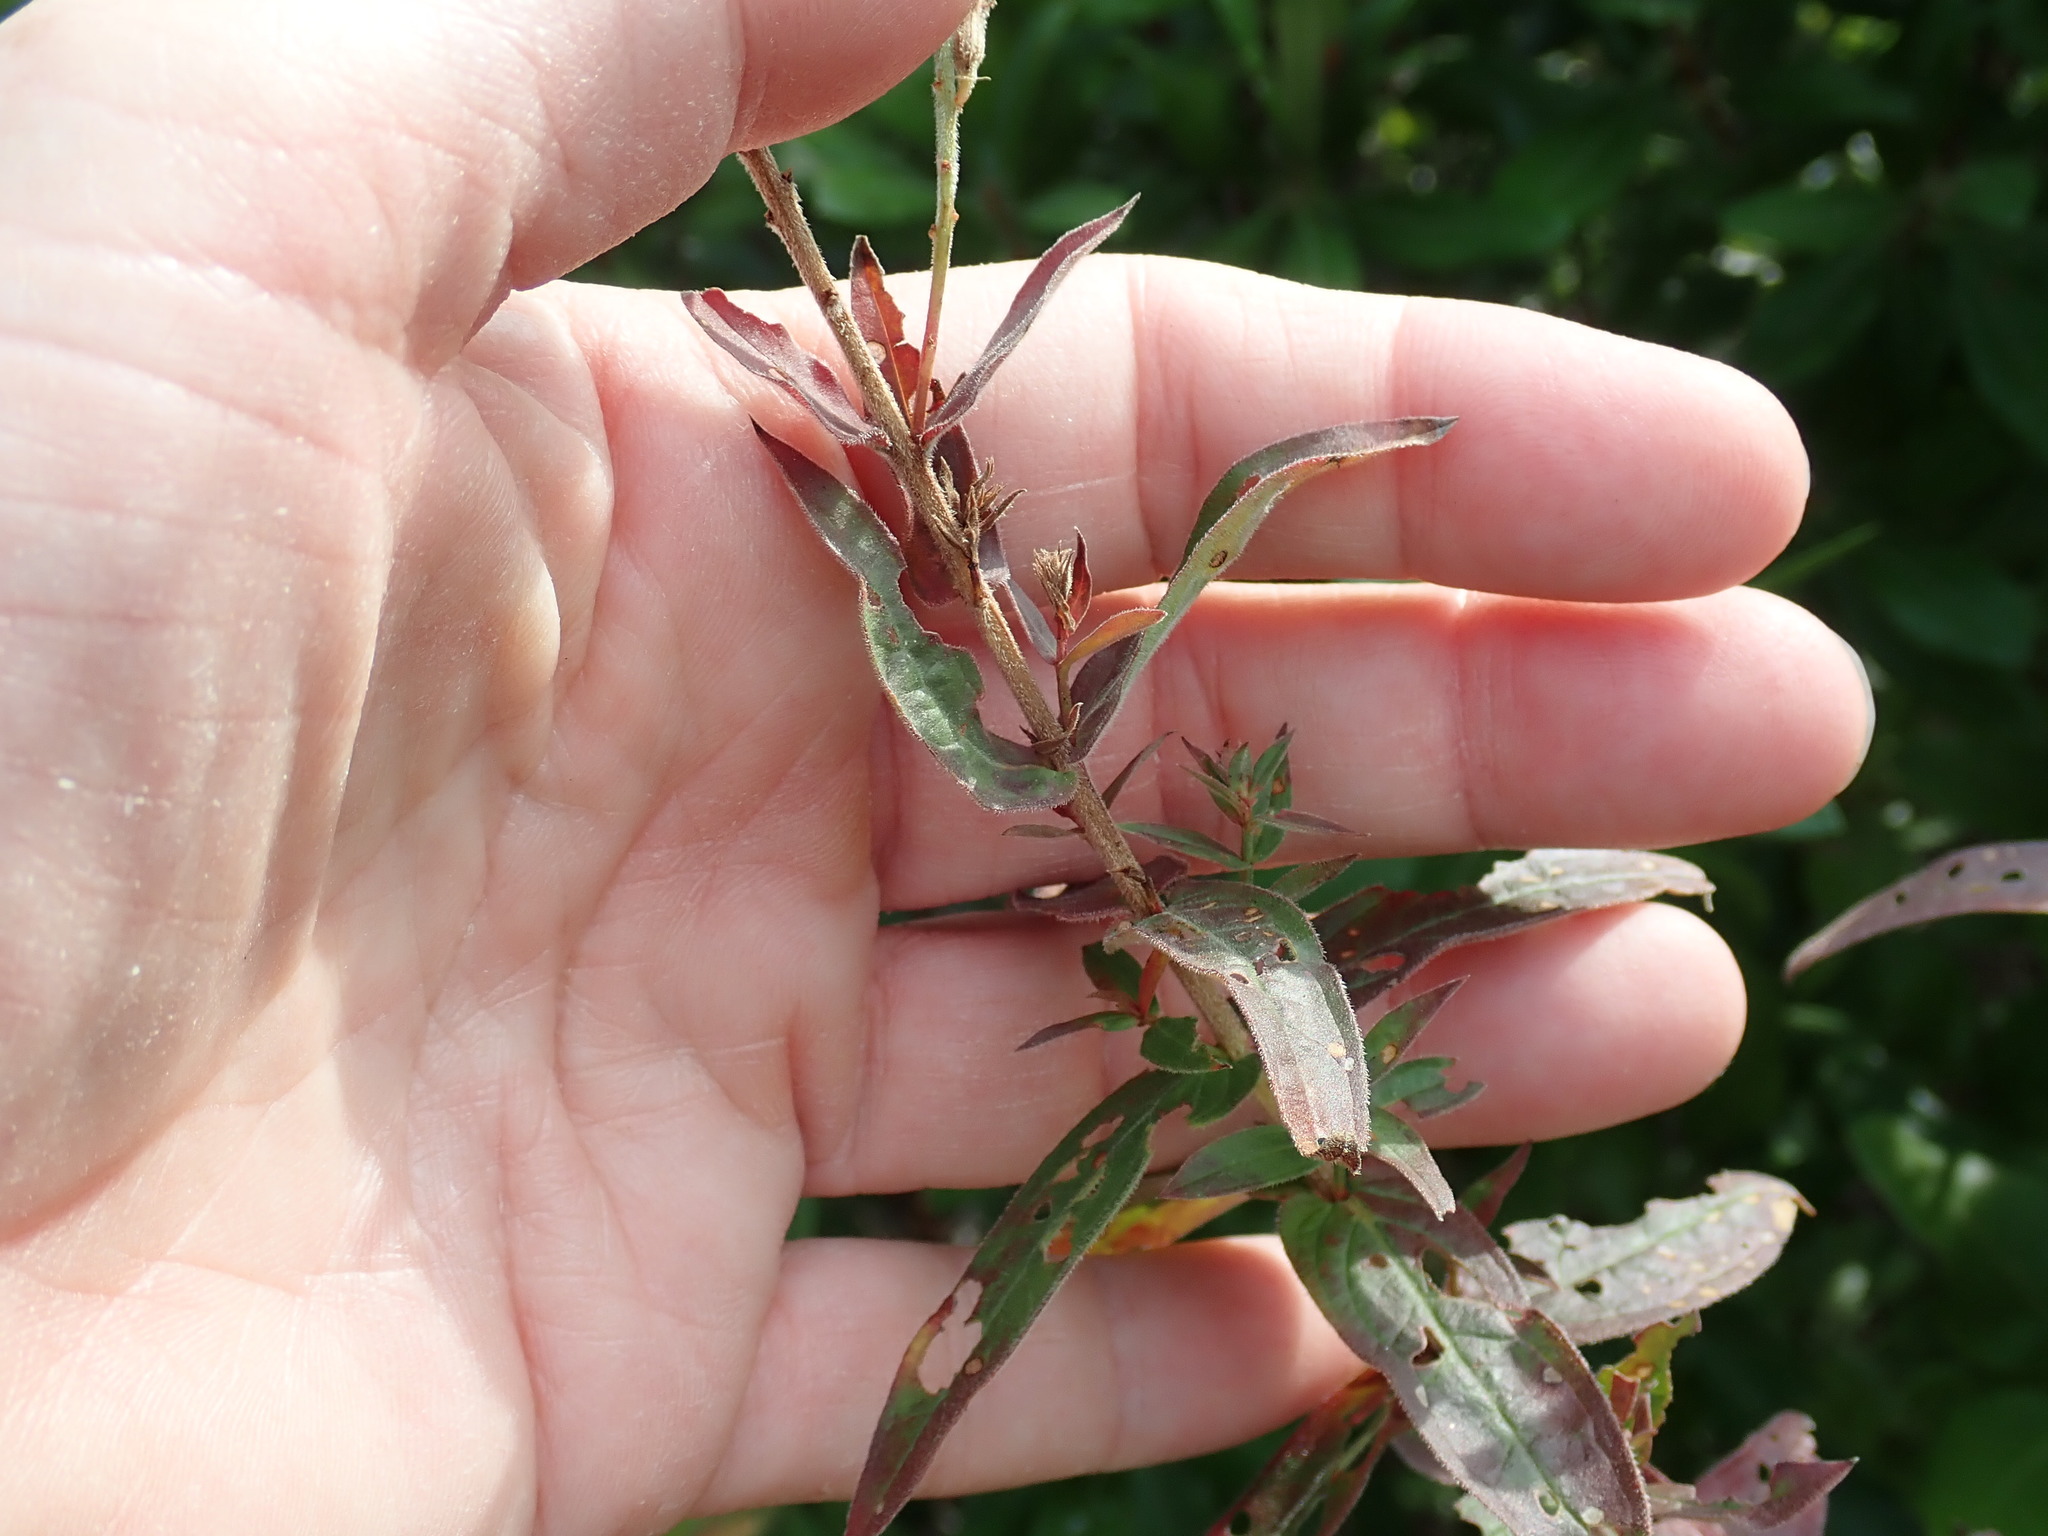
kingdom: Plantae
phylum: Tracheophyta
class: Magnoliopsida
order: Myrtales
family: Lythraceae
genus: Lythrum
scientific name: Lythrum salicaria
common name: Purple loosestrife
